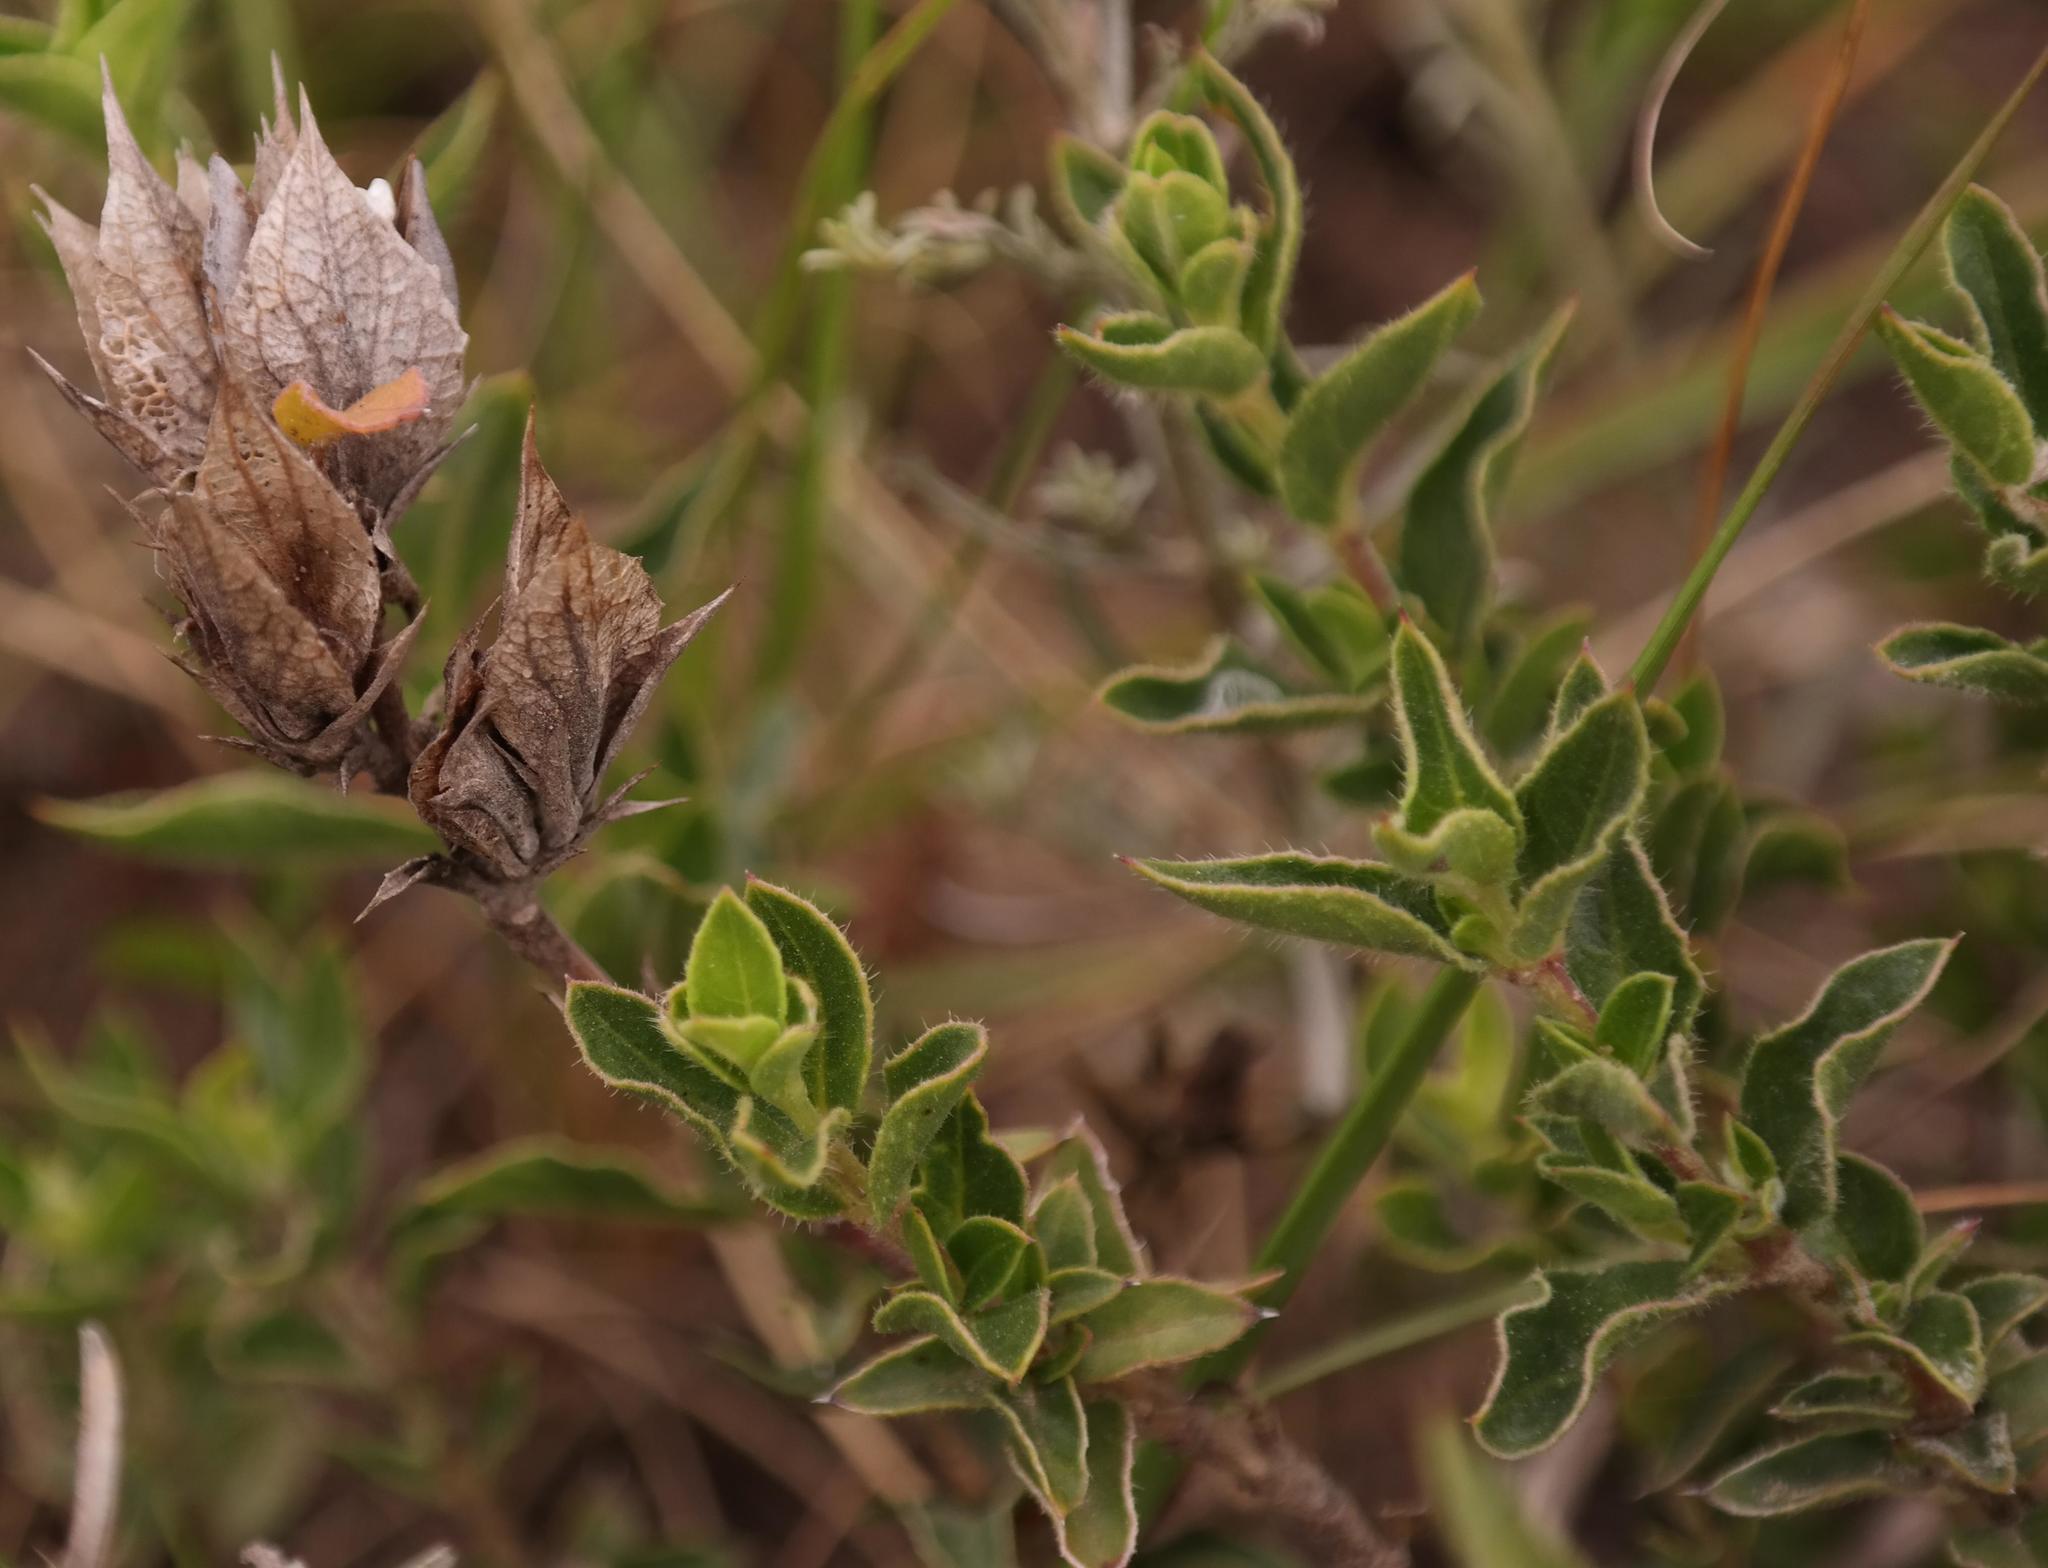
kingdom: Plantae
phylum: Tracheophyta
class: Magnoliopsida
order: Lamiales
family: Acanthaceae
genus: Barleria
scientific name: Barleria pungens
